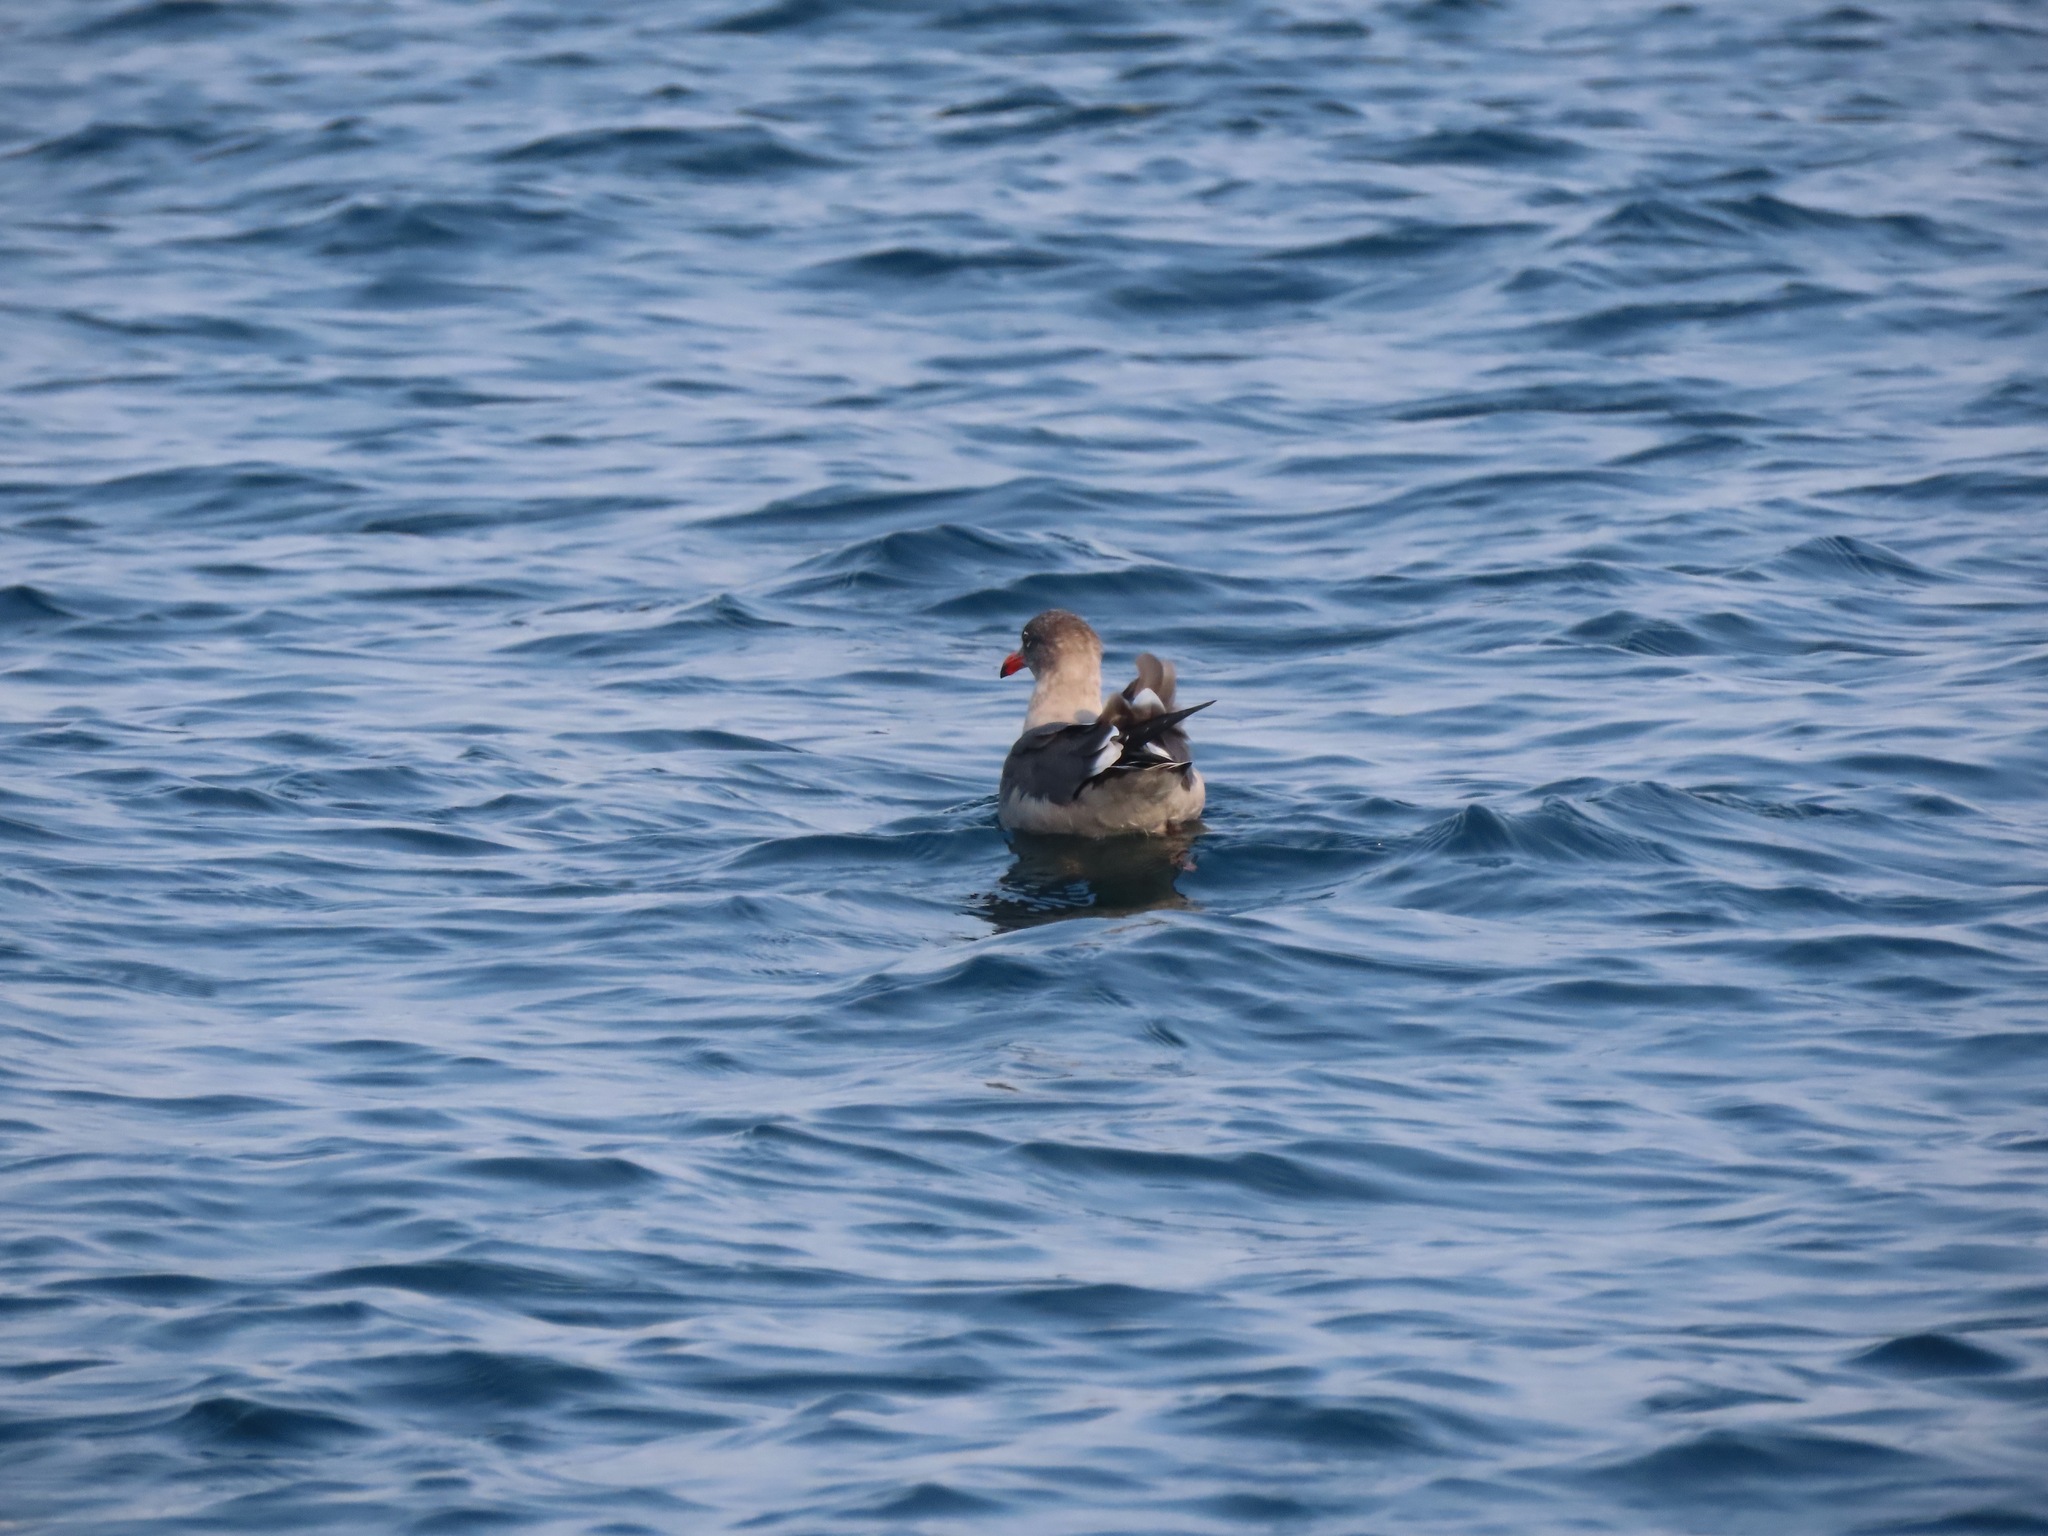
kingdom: Animalia
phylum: Chordata
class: Aves
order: Charadriiformes
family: Laridae
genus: Larus
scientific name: Larus heermanni
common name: Heermann's gull
